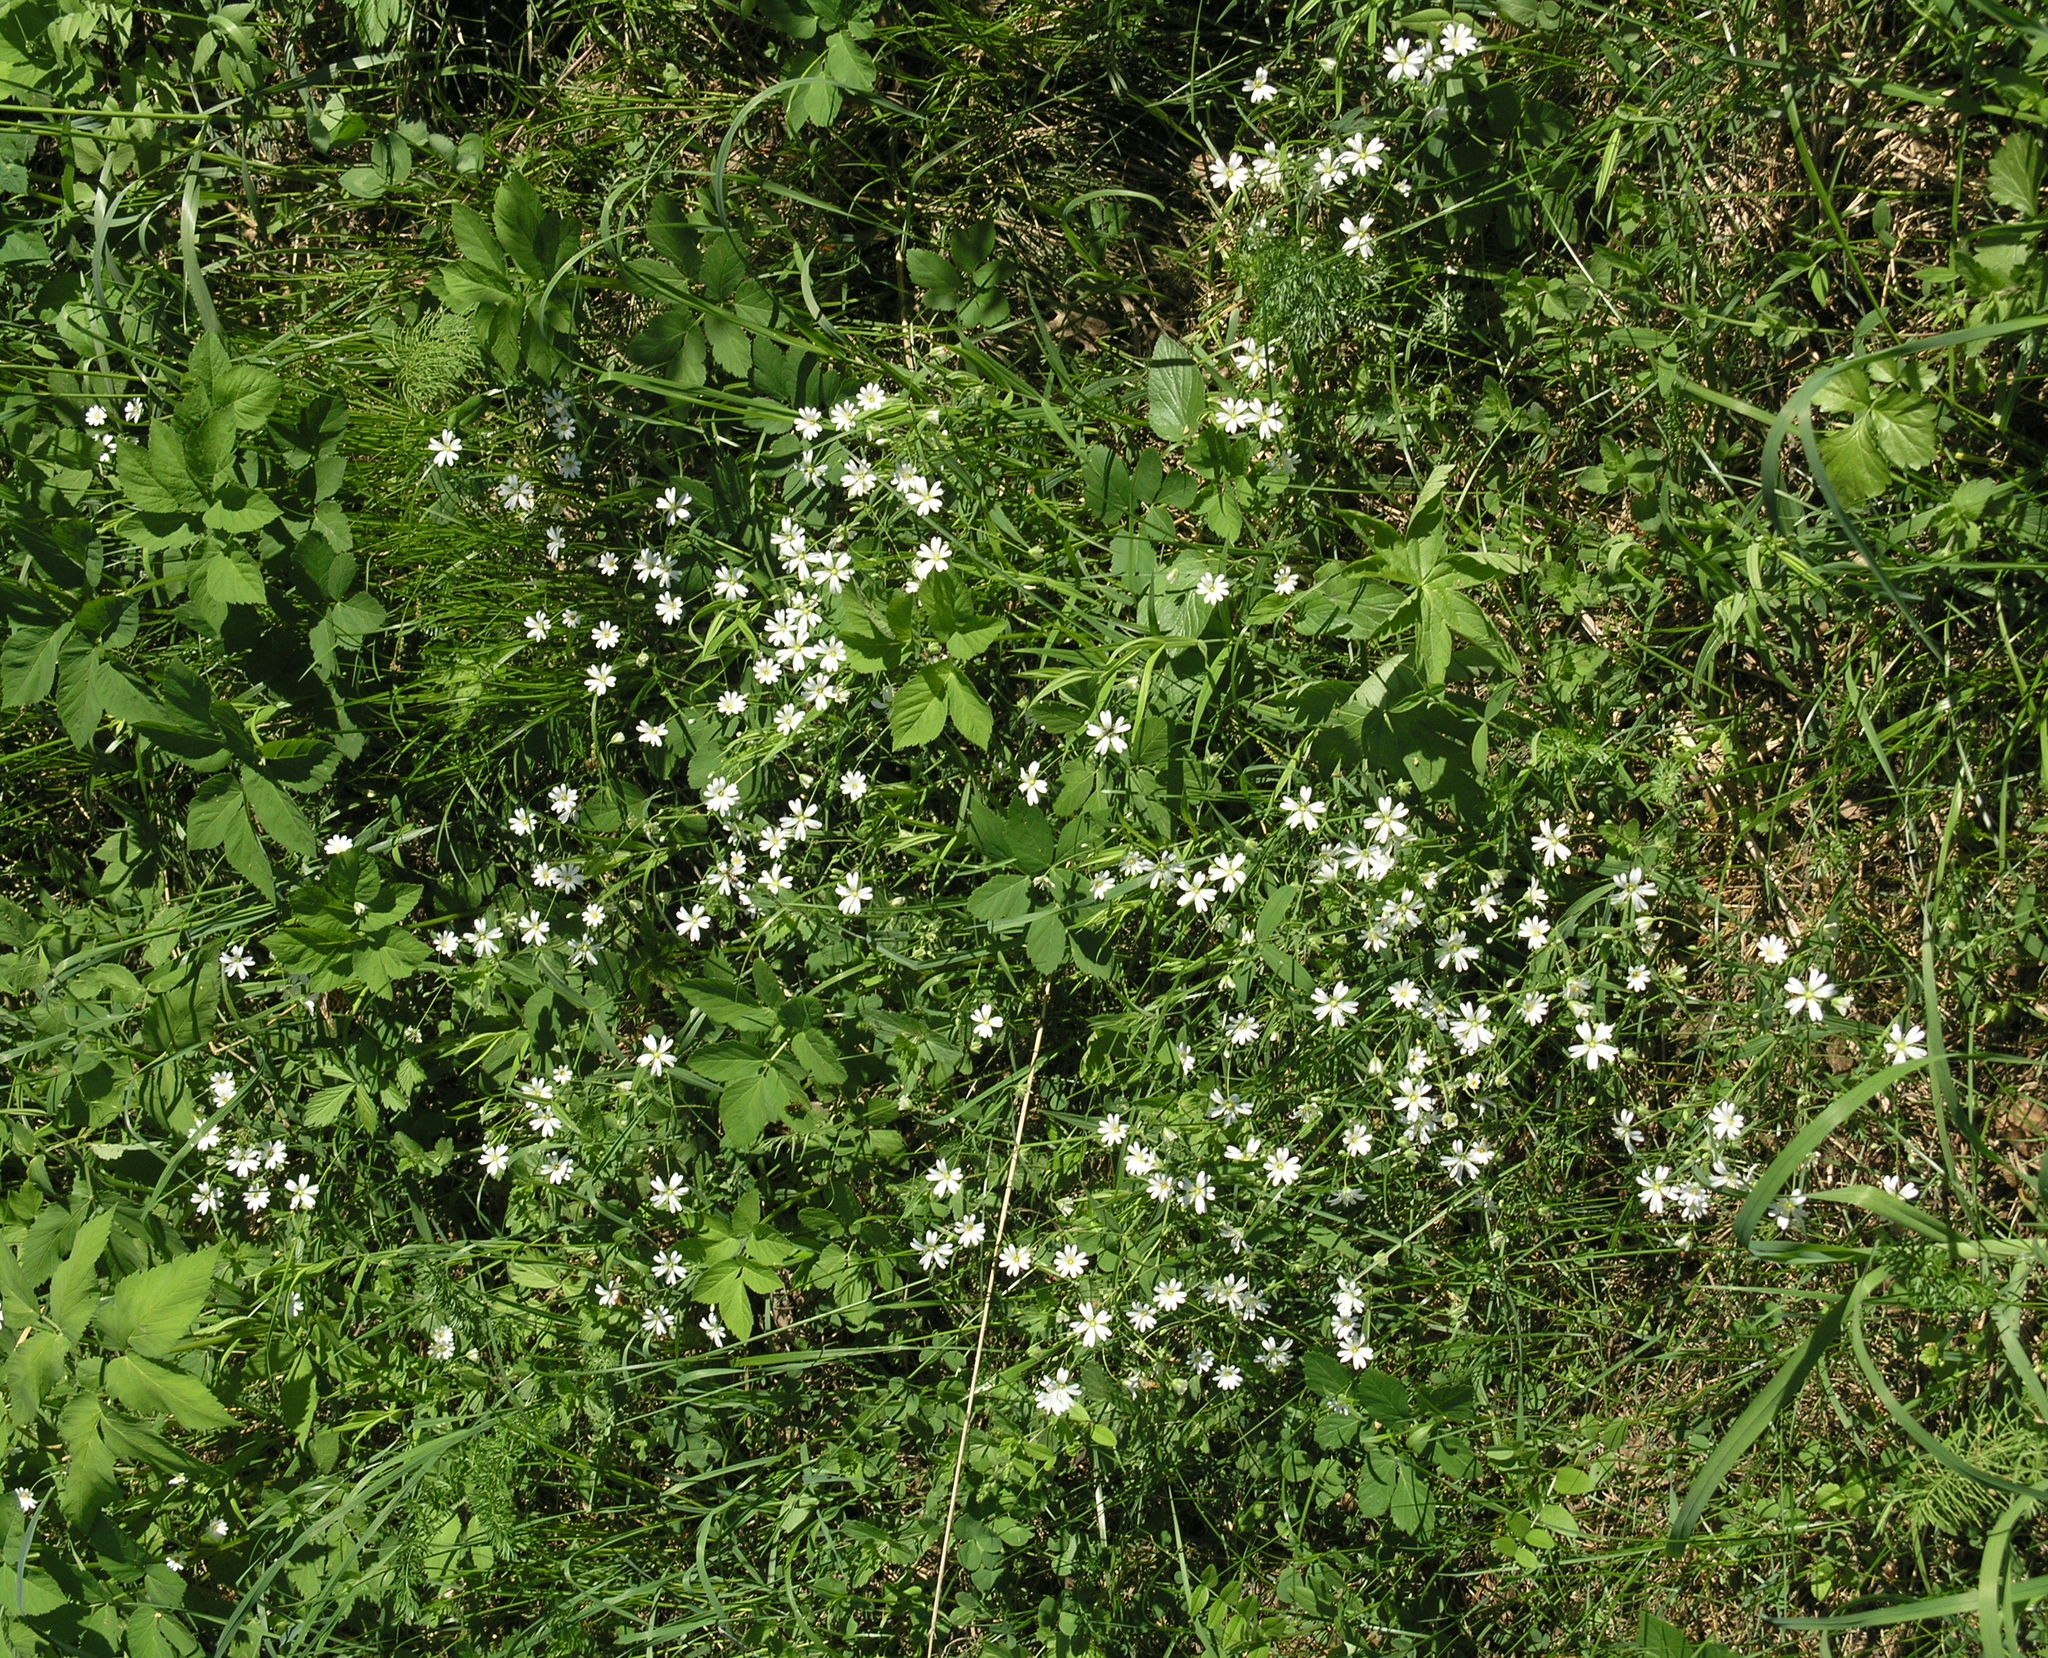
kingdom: Plantae
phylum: Tracheophyta
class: Magnoliopsida
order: Caryophyllales
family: Caryophyllaceae
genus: Rabelera
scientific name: Rabelera holostea
